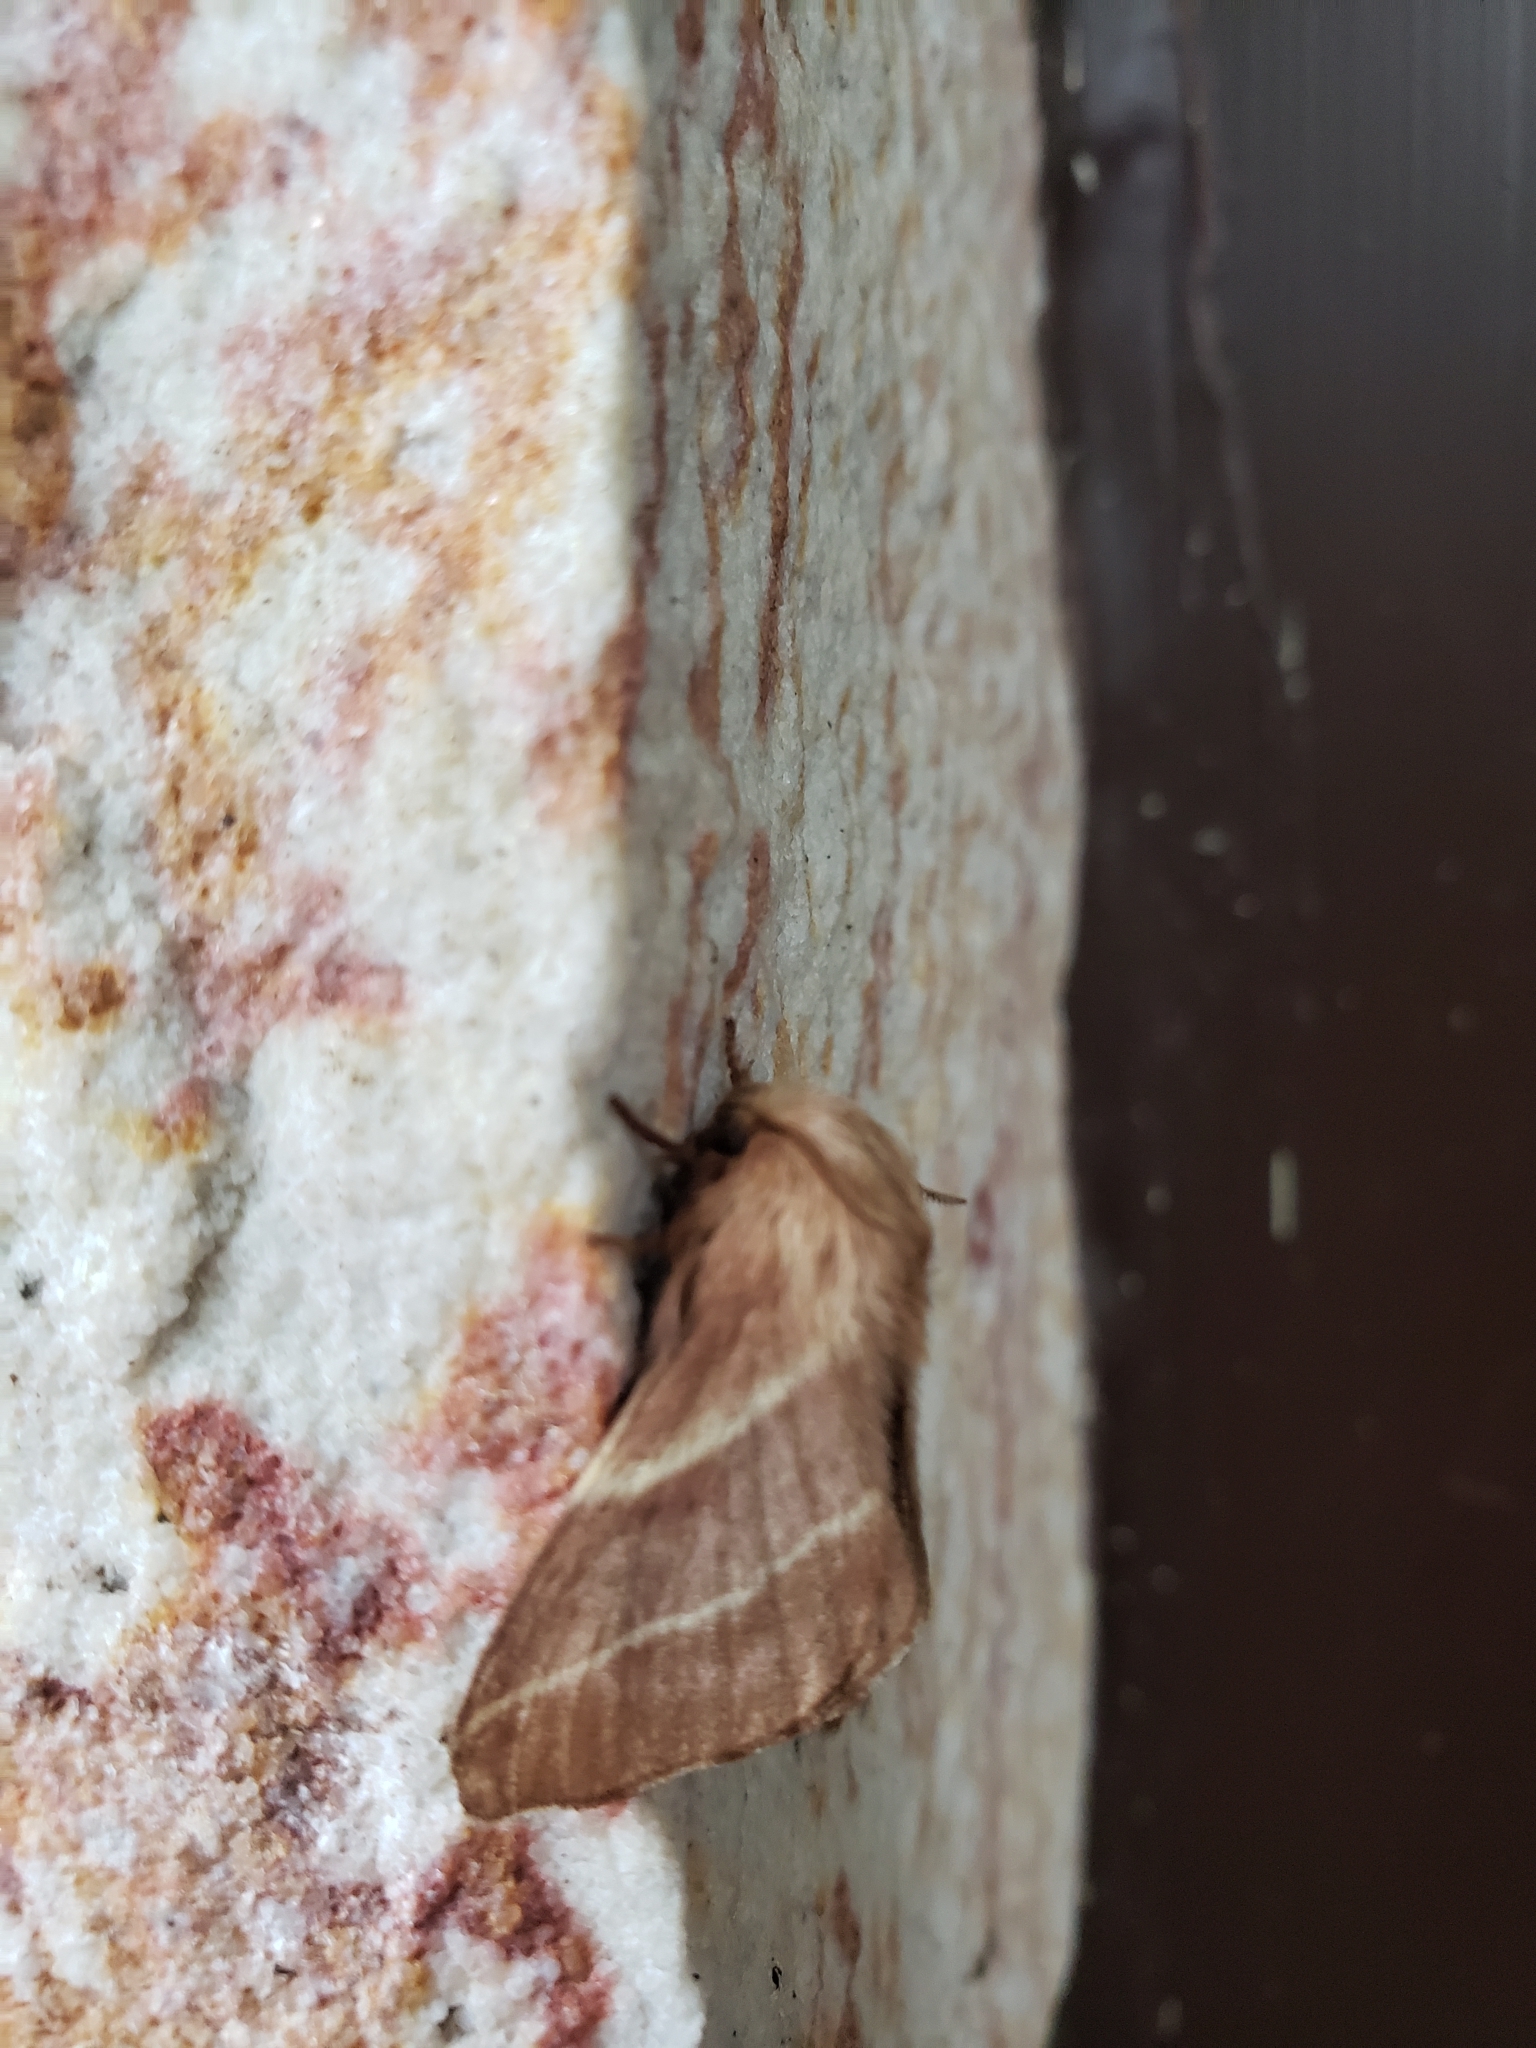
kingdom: Animalia
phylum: Arthropoda
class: Insecta
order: Lepidoptera
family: Lasiocampidae
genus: Malacosoma
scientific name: Malacosoma americana
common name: Eastern tent caterpillar moth
